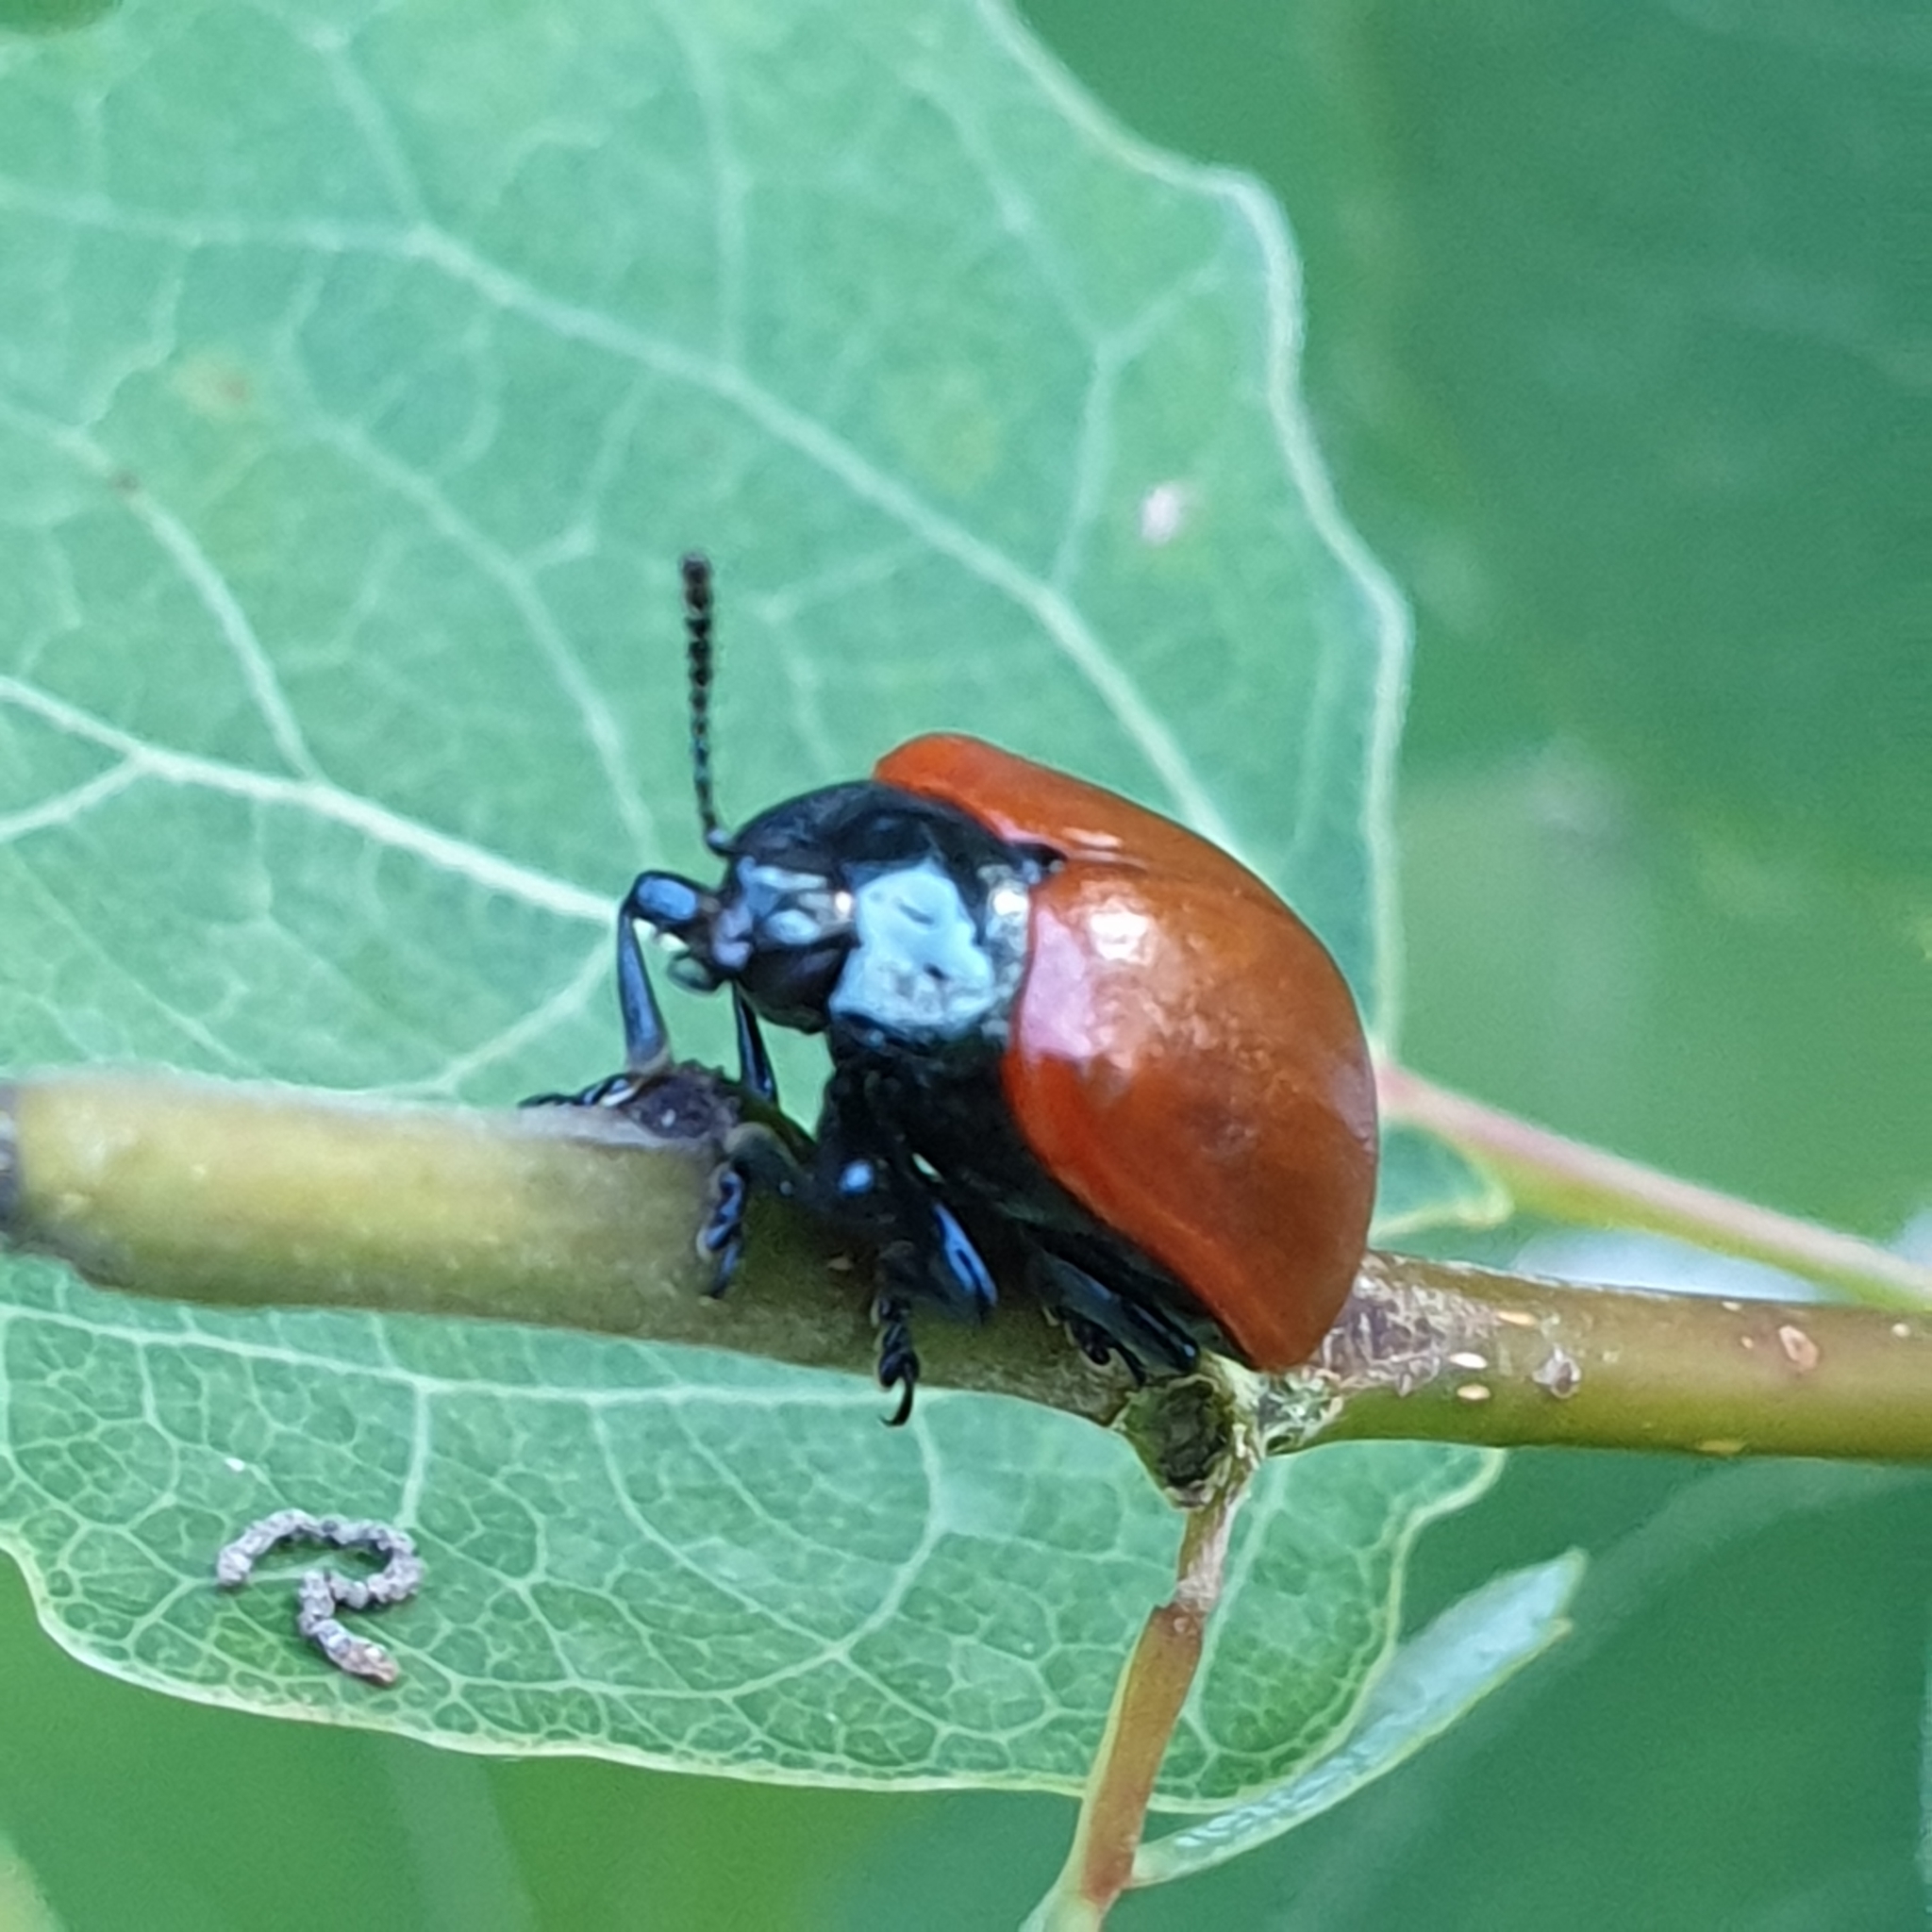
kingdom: Animalia
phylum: Arthropoda
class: Insecta
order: Coleoptera
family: Chrysomelidae
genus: Chrysomela
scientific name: Chrysomela populi
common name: Red poplar leaf beetle
